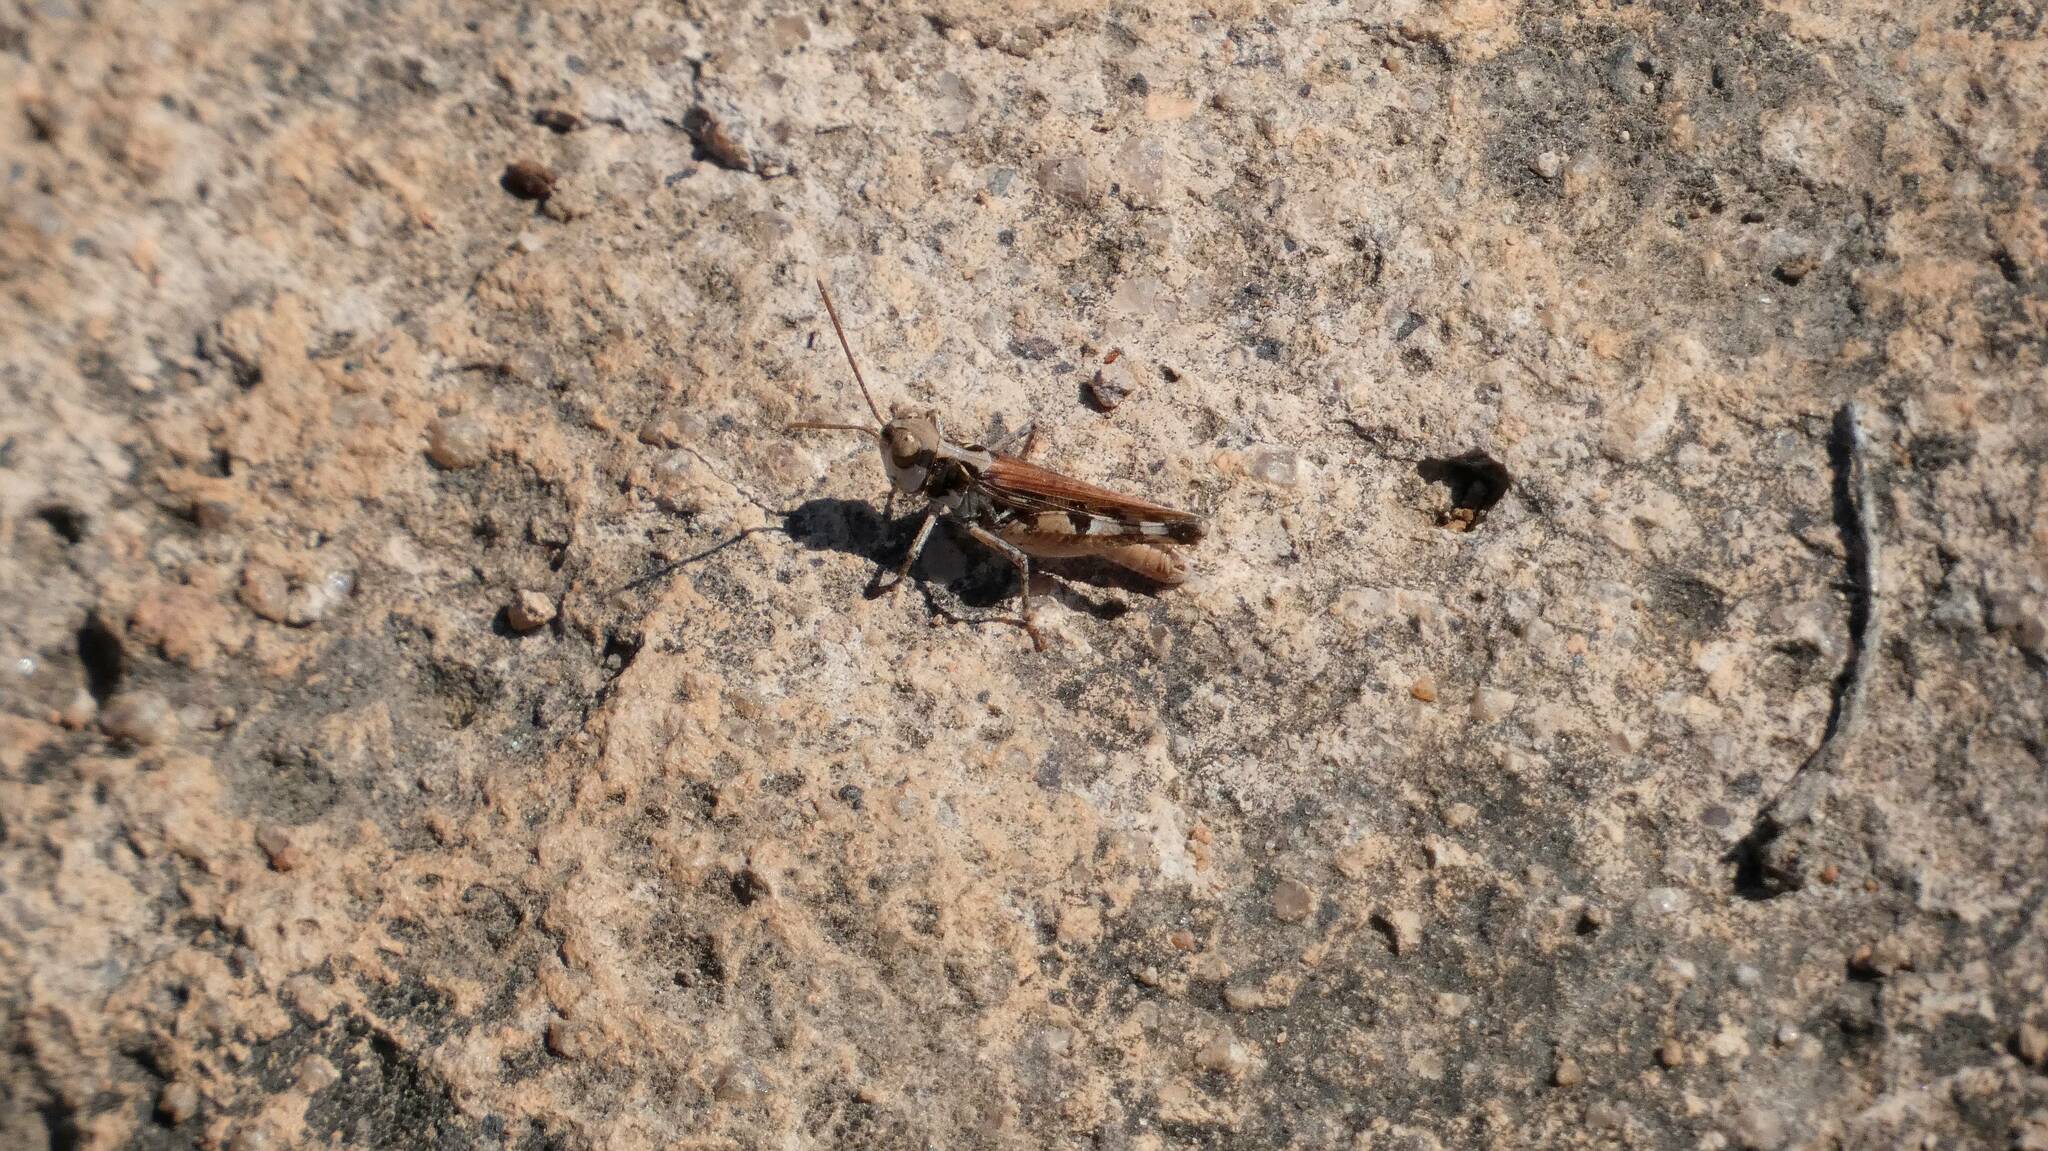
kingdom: Animalia
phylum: Arthropoda
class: Insecta
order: Orthoptera
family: Acrididae
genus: Dociostaurus
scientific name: Dociostaurus genei
